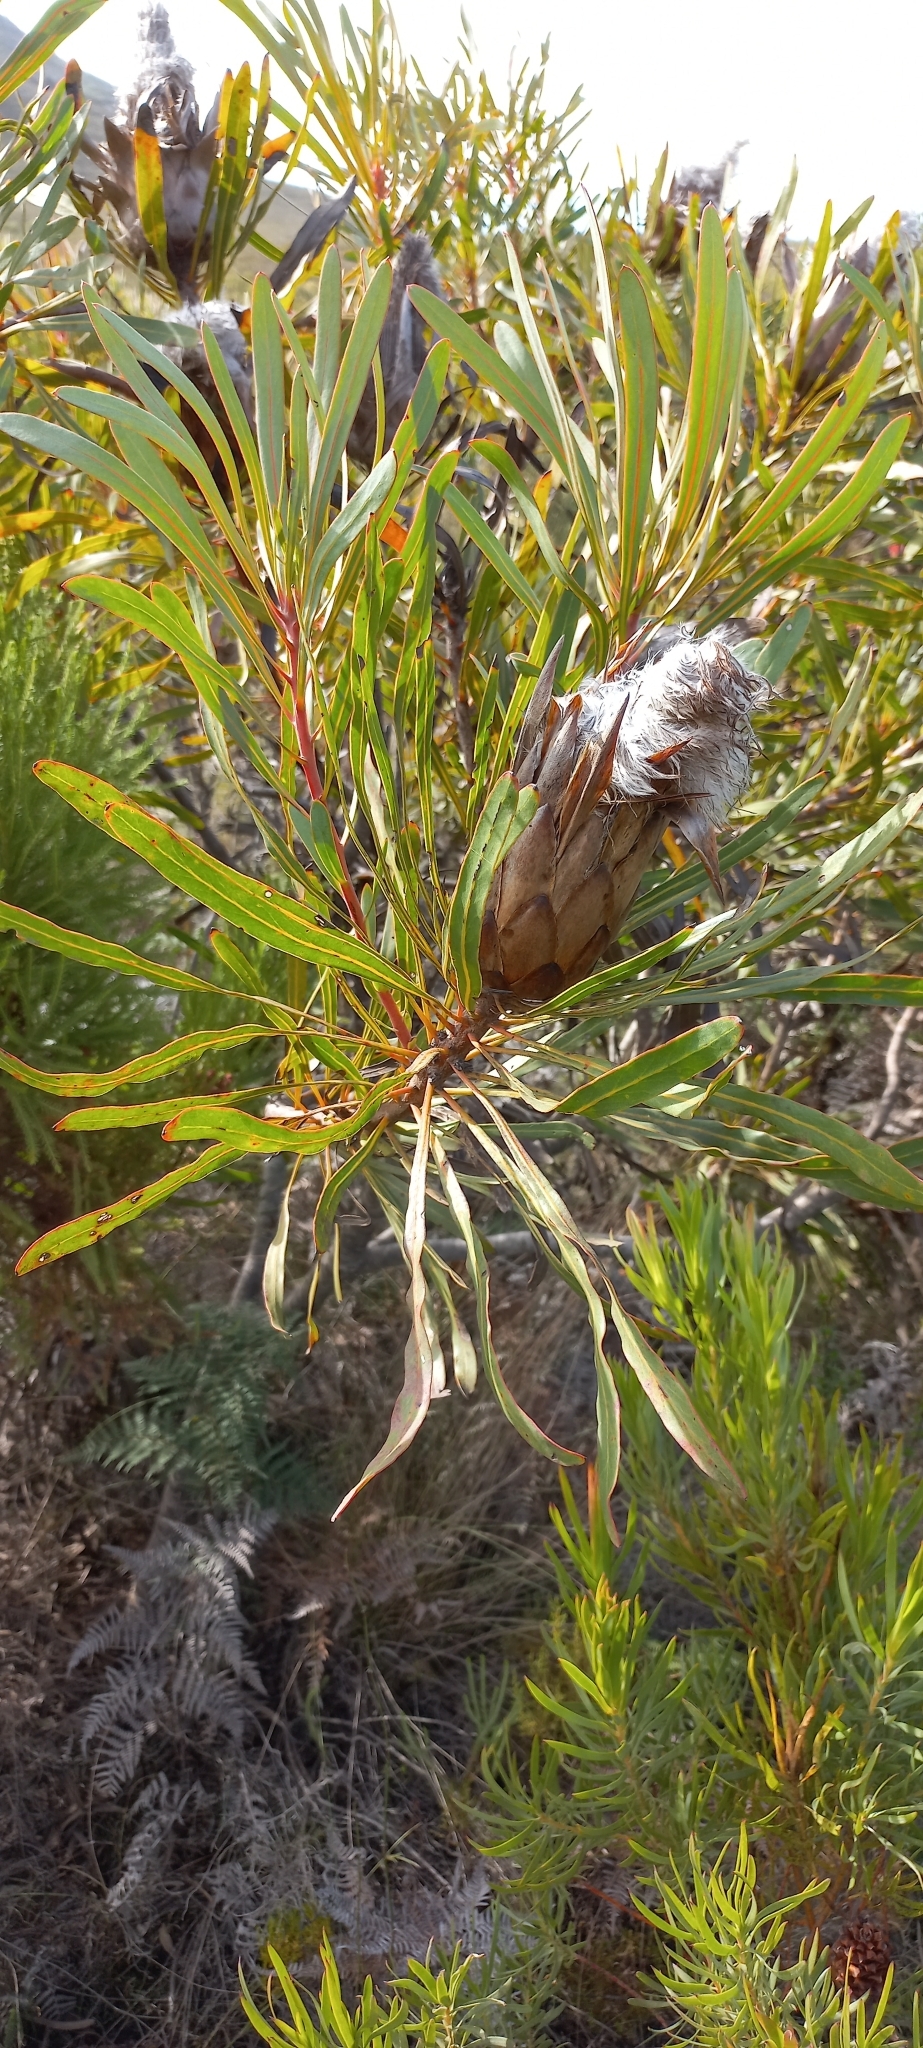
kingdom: Plantae
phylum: Tracheophyta
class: Magnoliopsida
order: Proteales
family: Proteaceae
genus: Protea
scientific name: Protea longifolia
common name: Long-leaf sugarbush
